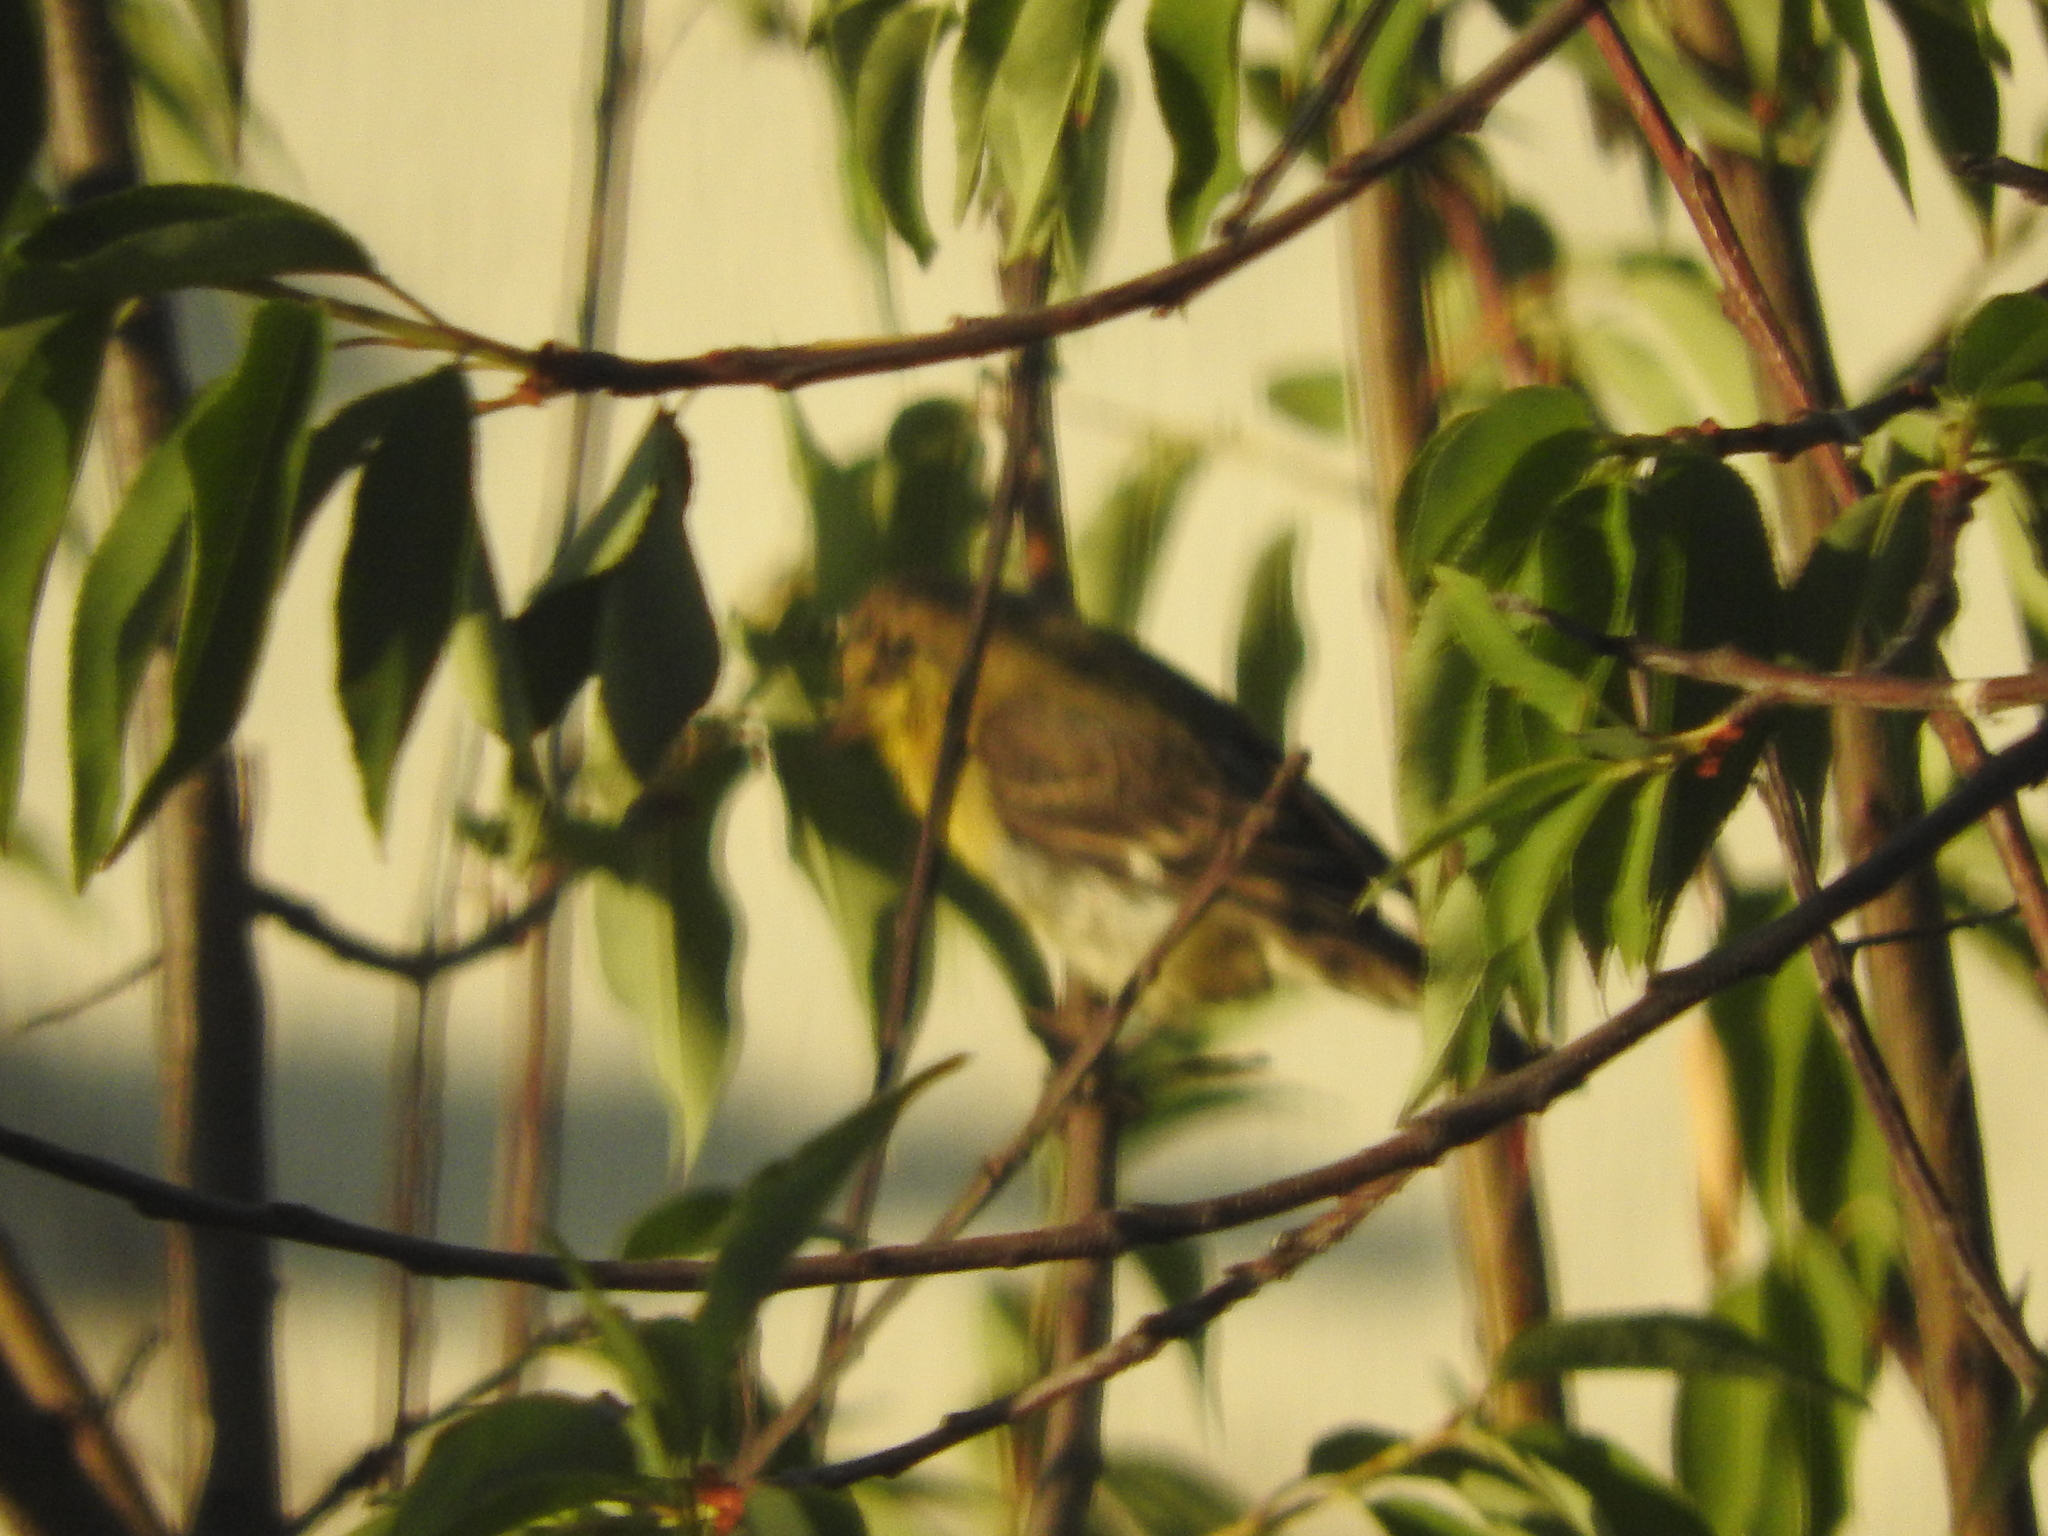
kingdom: Animalia
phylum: Chordata
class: Aves
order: Passeriformes
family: Fringillidae
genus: Spinus
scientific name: Spinus psaltria
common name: Lesser goldfinch
